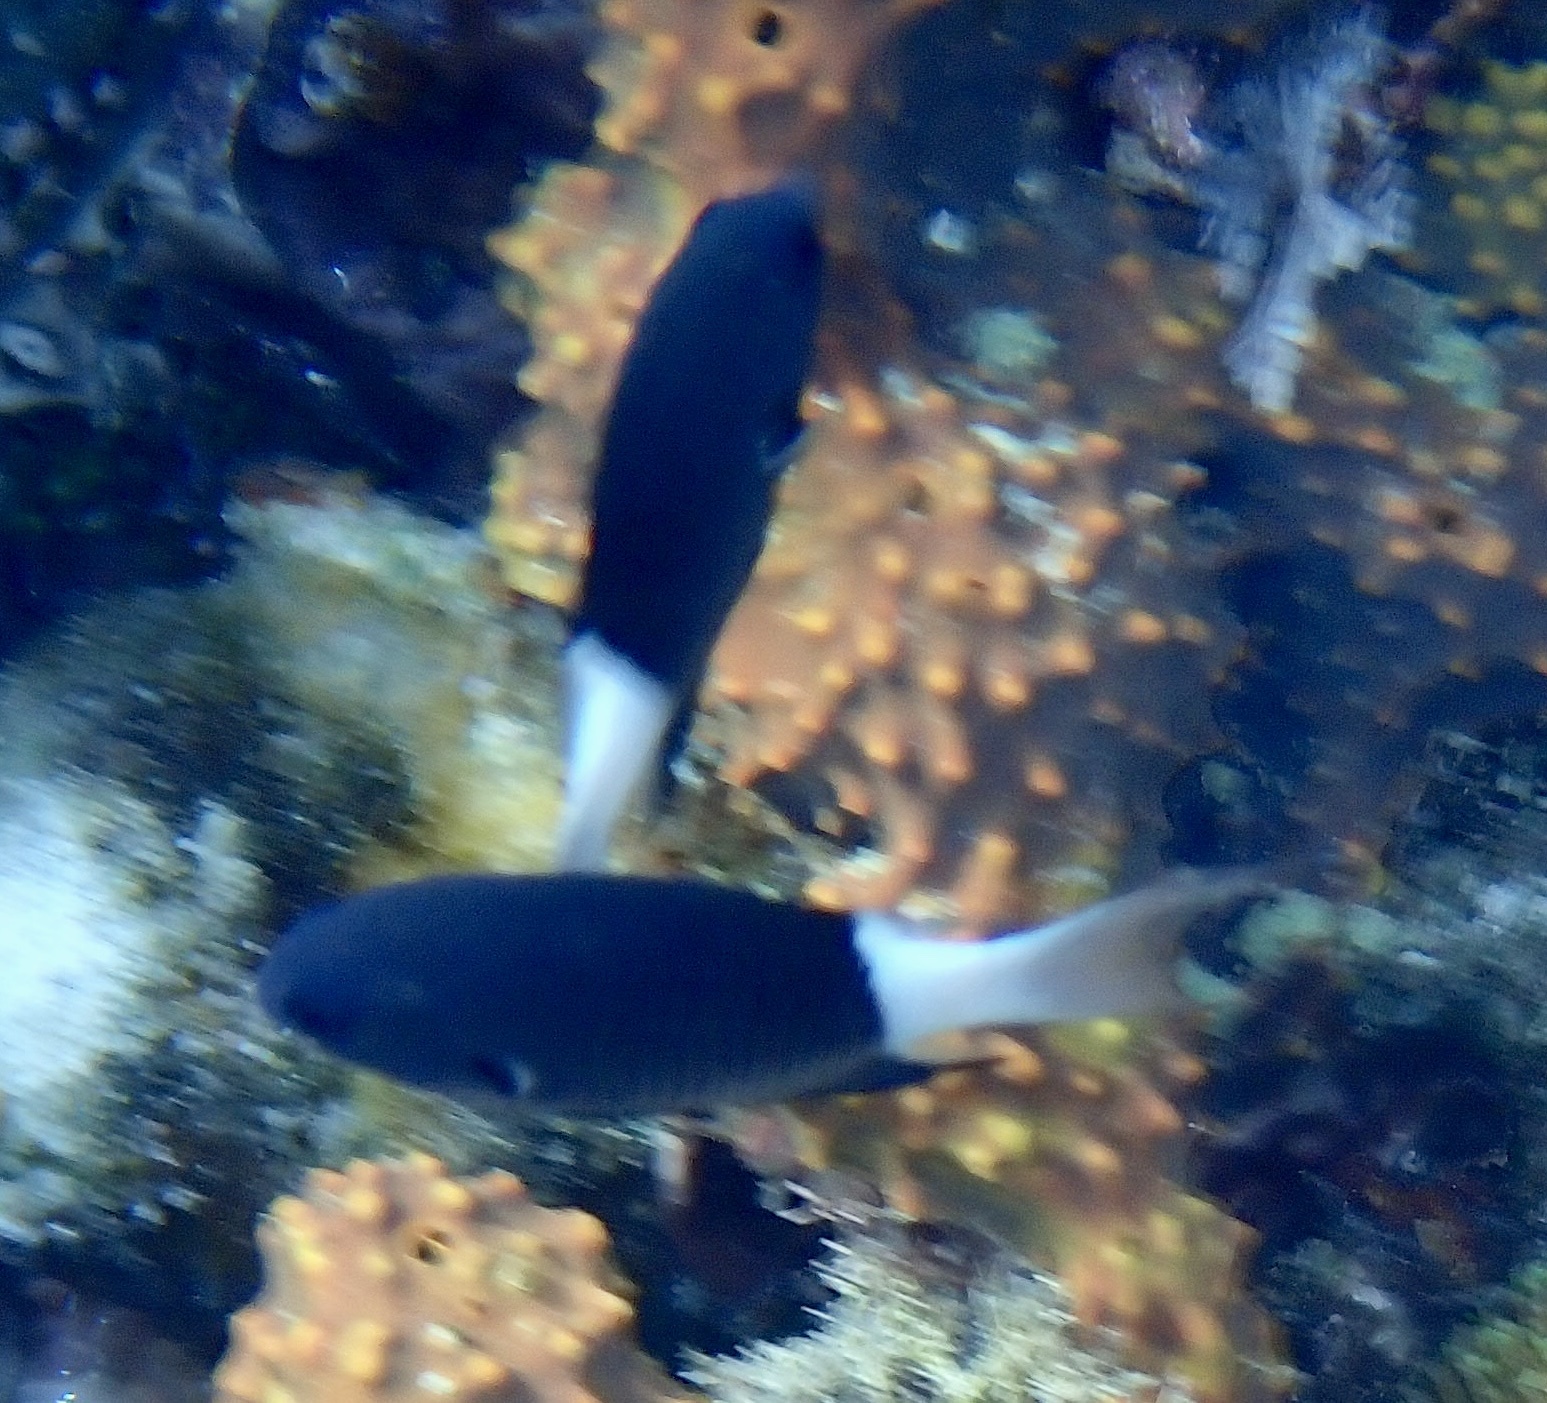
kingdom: Animalia
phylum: Chordata
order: Perciformes
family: Pomacentridae
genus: Pycnochromis
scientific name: Pycnochromis margaritifer
